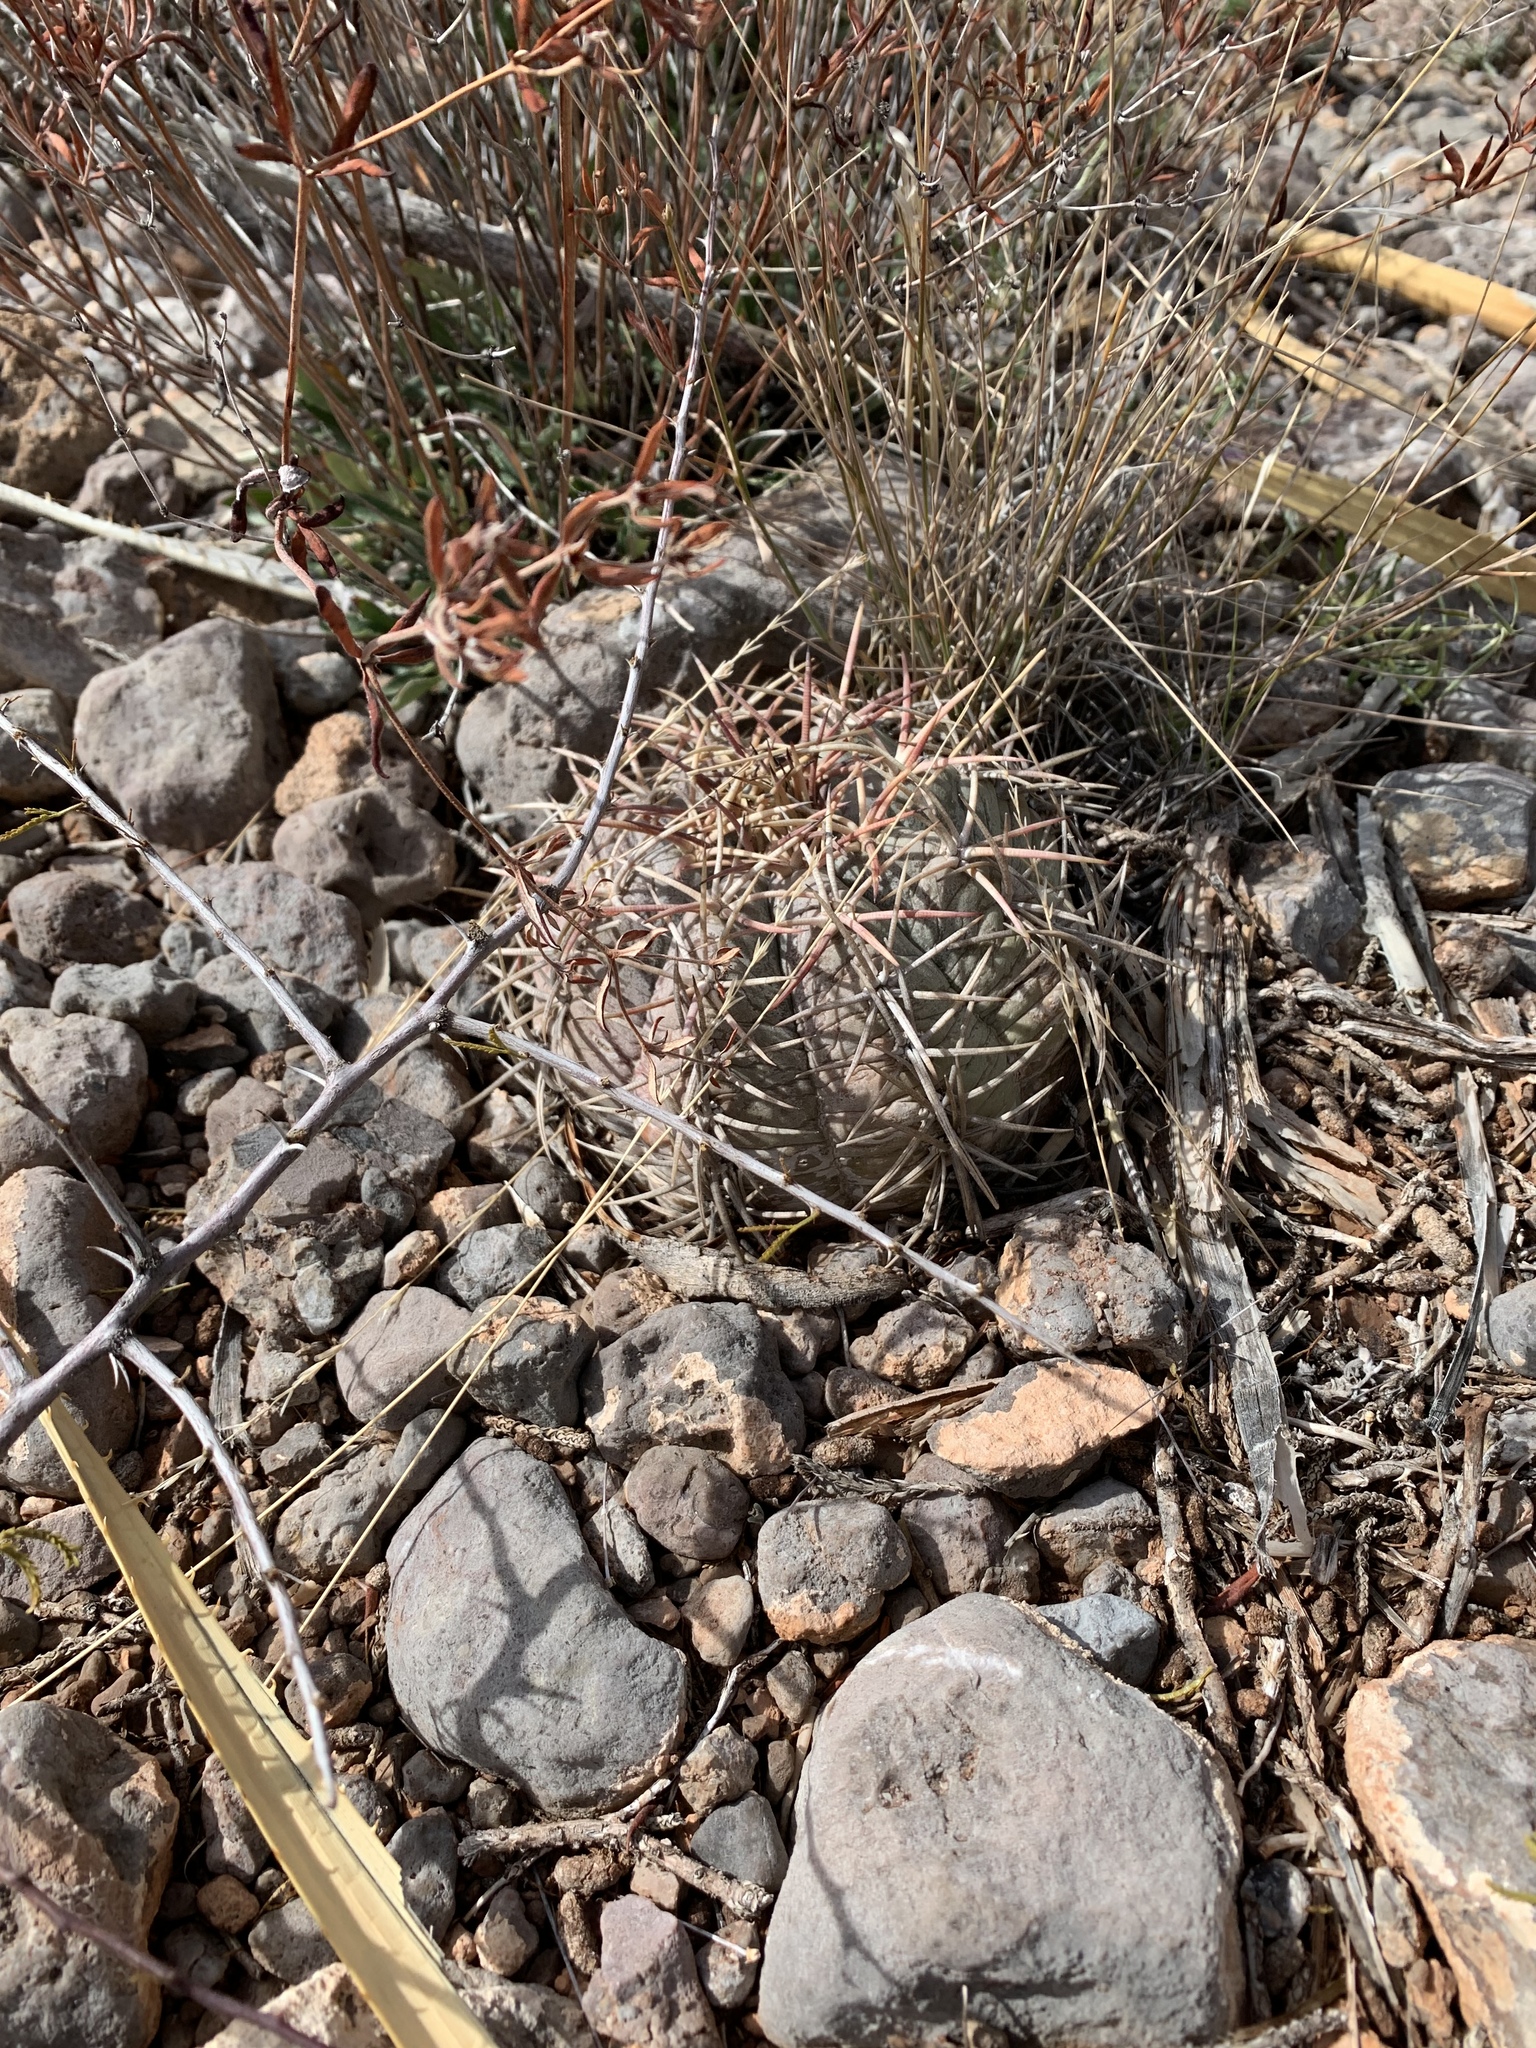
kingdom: Plantae
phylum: Tracheophyta
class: Magnoliopsida
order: Caryophyllales
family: Cactaceae
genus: Echinocactus
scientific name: Echinocactus horizonthalonius
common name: Devilshead
